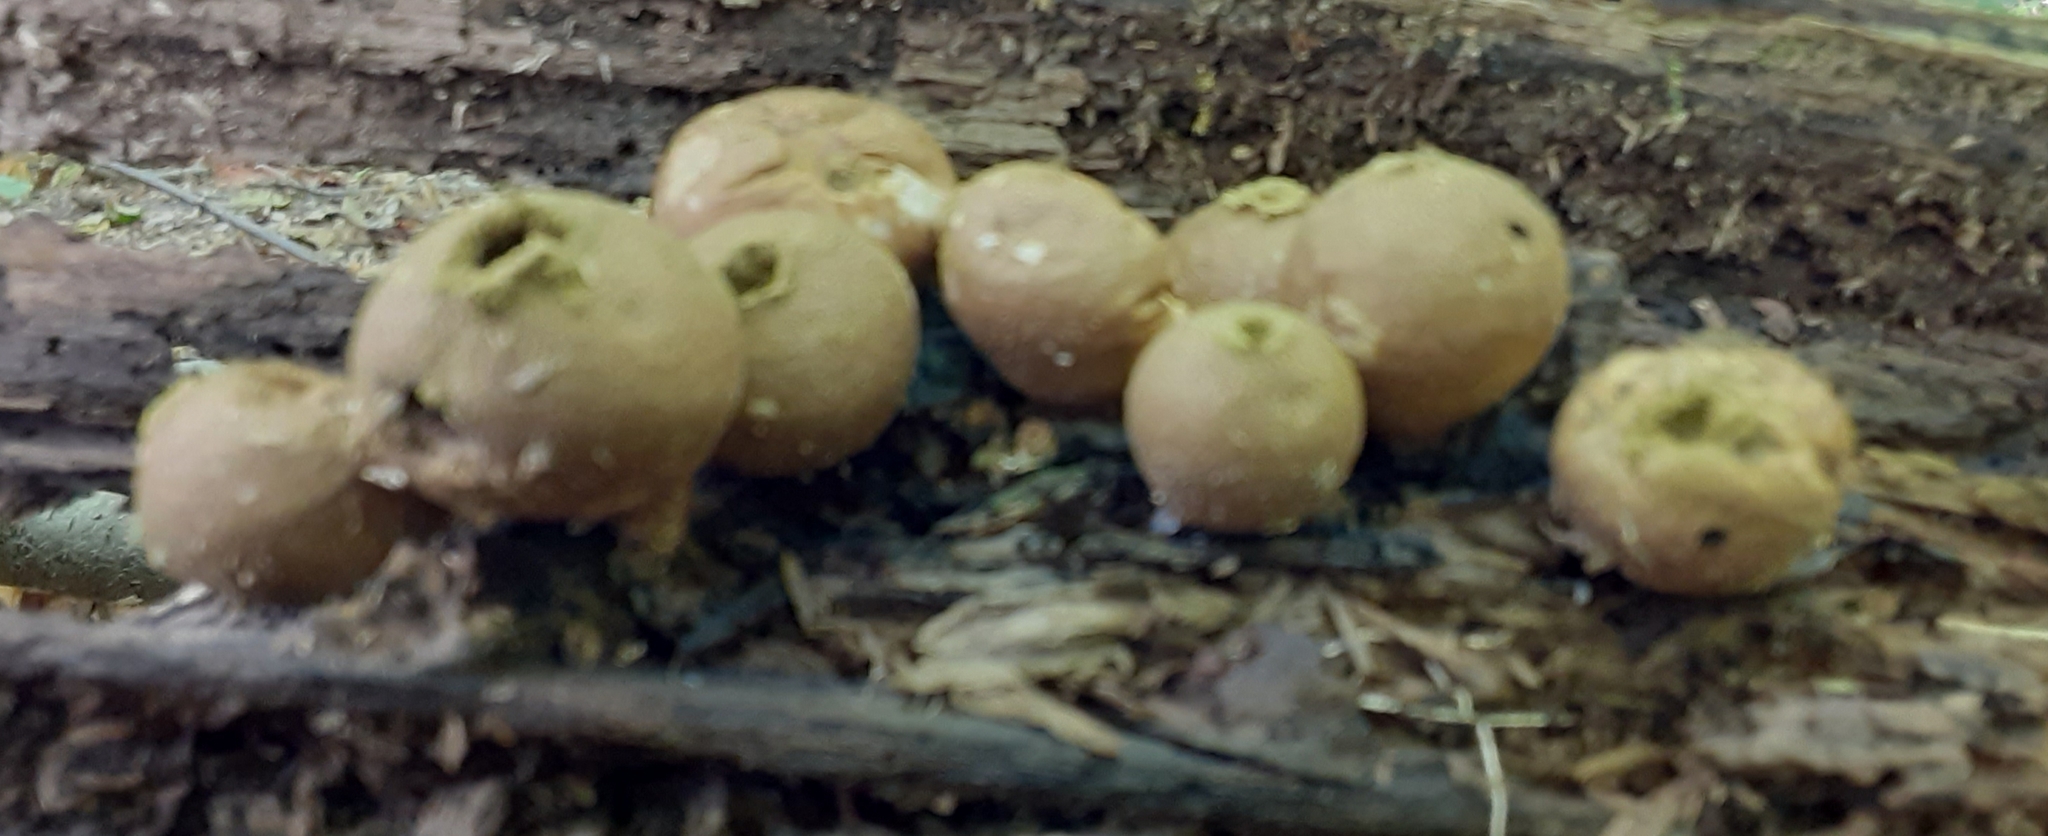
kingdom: Fungi
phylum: Basidiomycota
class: Agaricomycetes
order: Agaricales
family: Lycoperdaceae
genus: Apioperdon
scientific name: Apioperdon pyriforme
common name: Pear-shaped puffball
